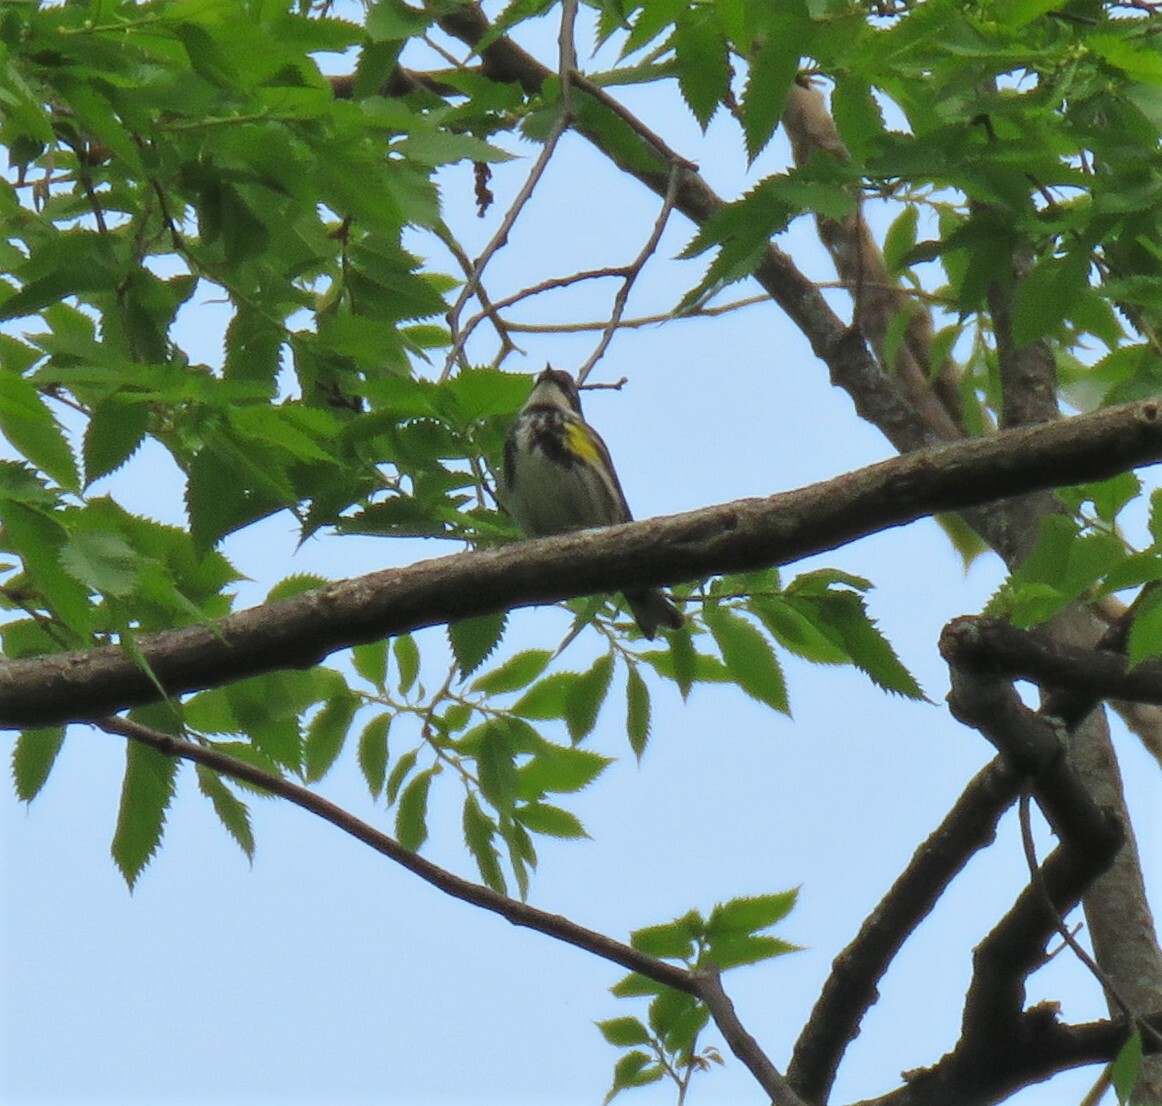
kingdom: Animalia
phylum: Chordata
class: Aves
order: Passeriformes
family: Parulidae
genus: Setophaga
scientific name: Setophaga coronata
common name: Myrtle warbler
